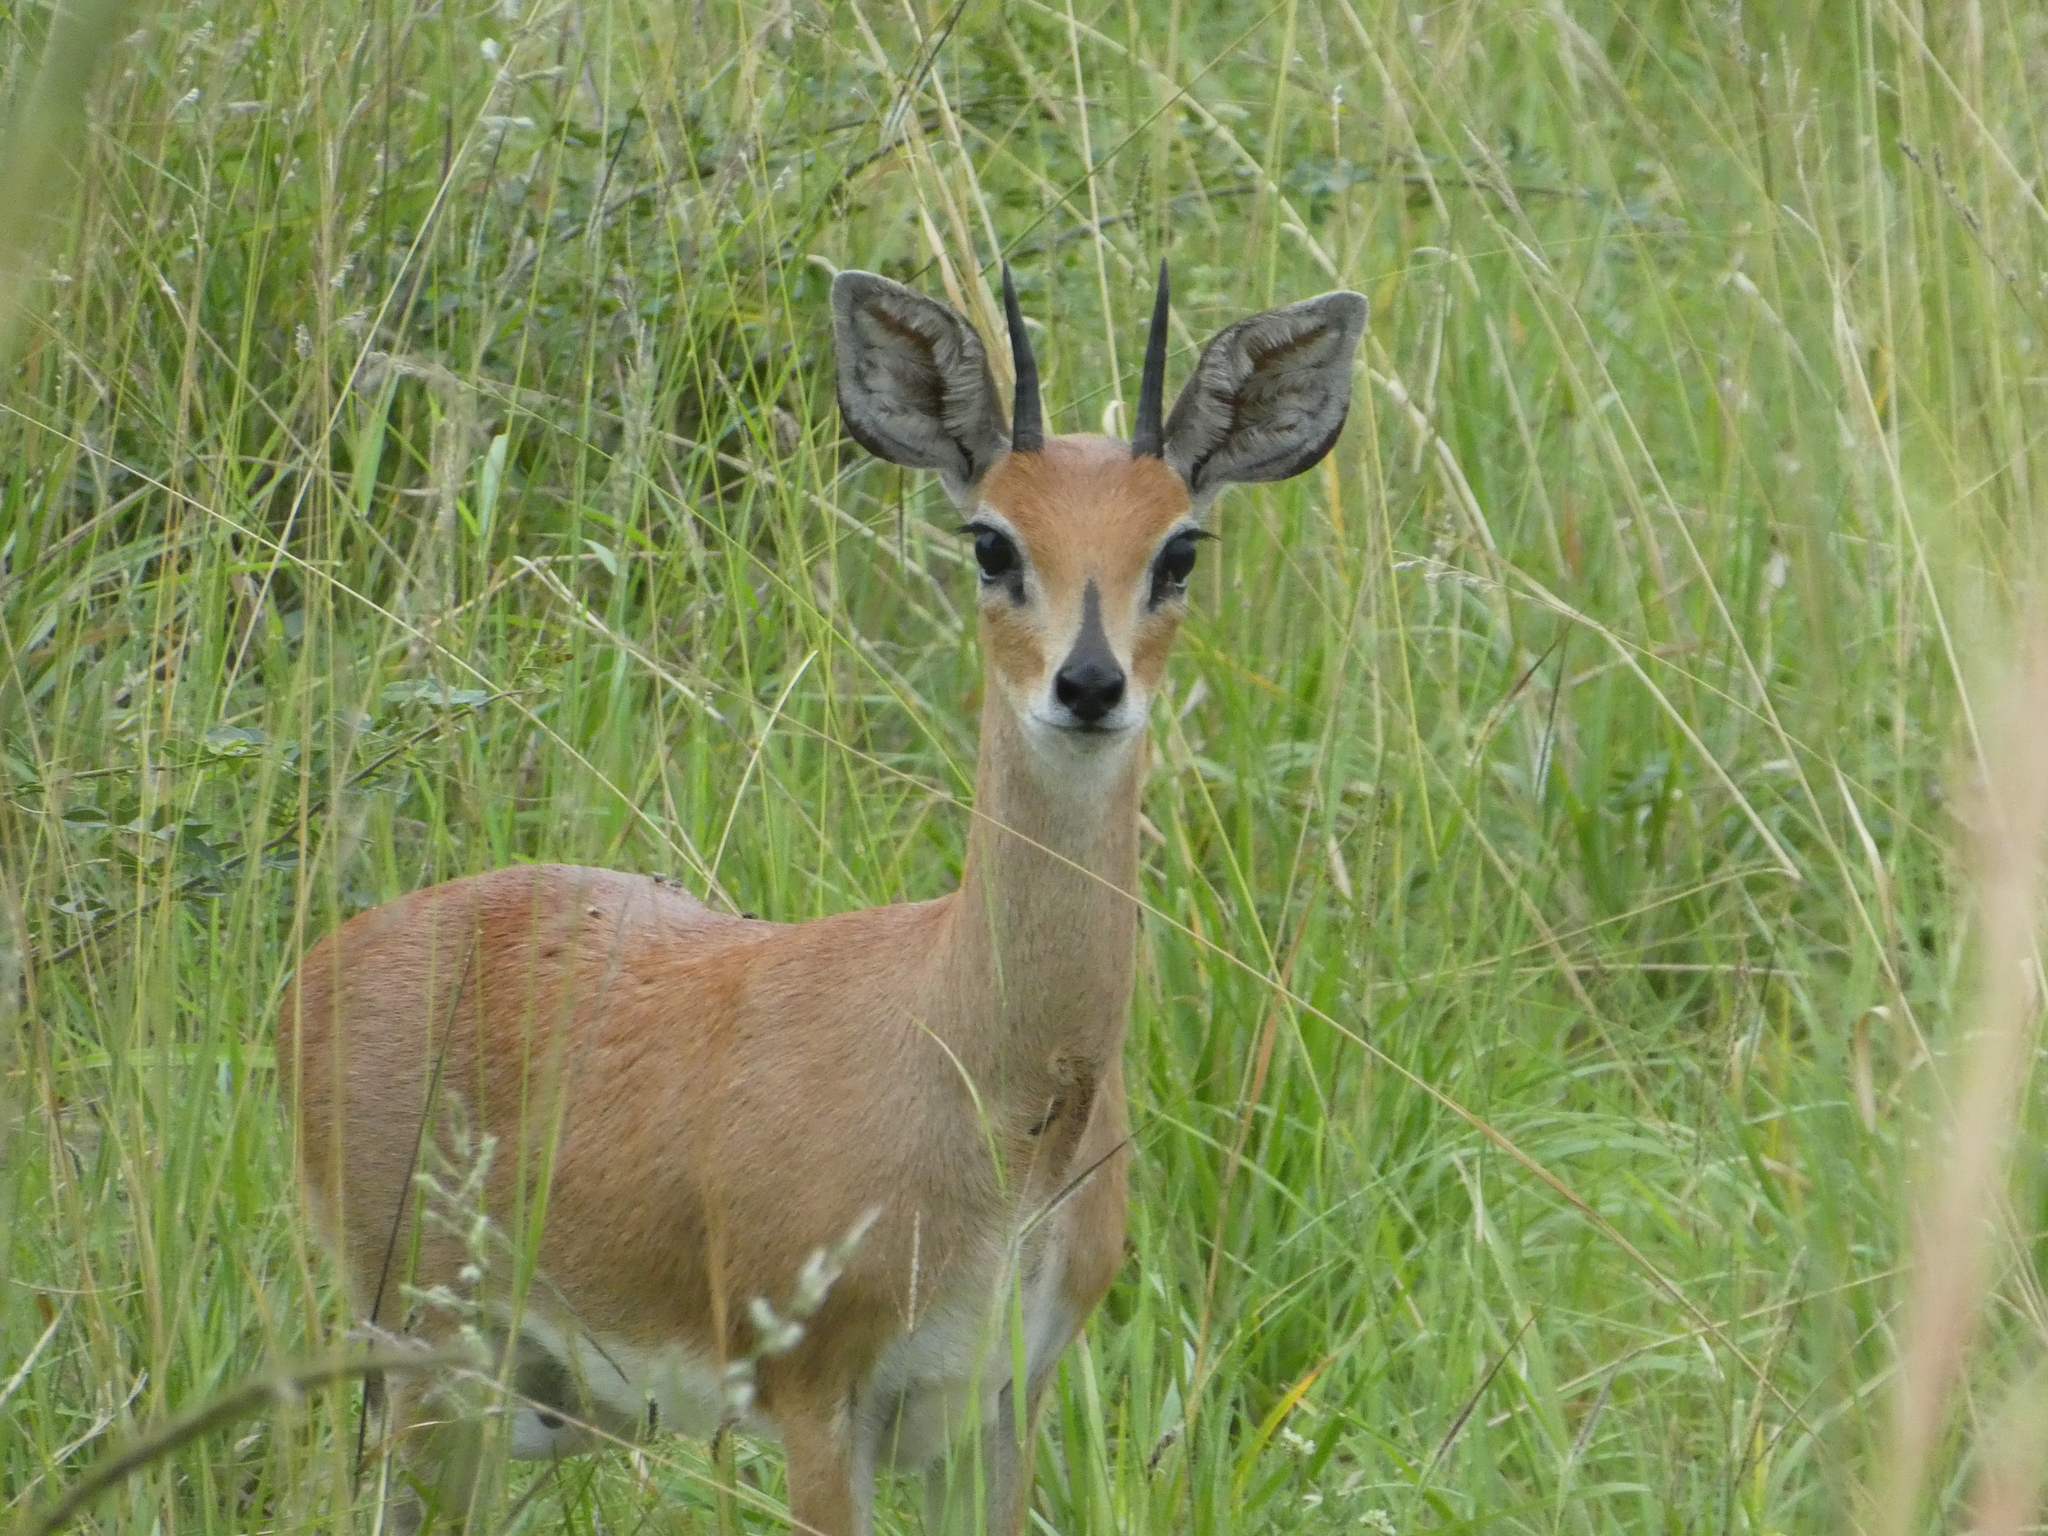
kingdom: Animalia
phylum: Chordata
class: Mammalia
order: Artiodactyla
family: Bovidae
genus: Raphicerus
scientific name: Raphicerus campestris
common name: Steenbok
